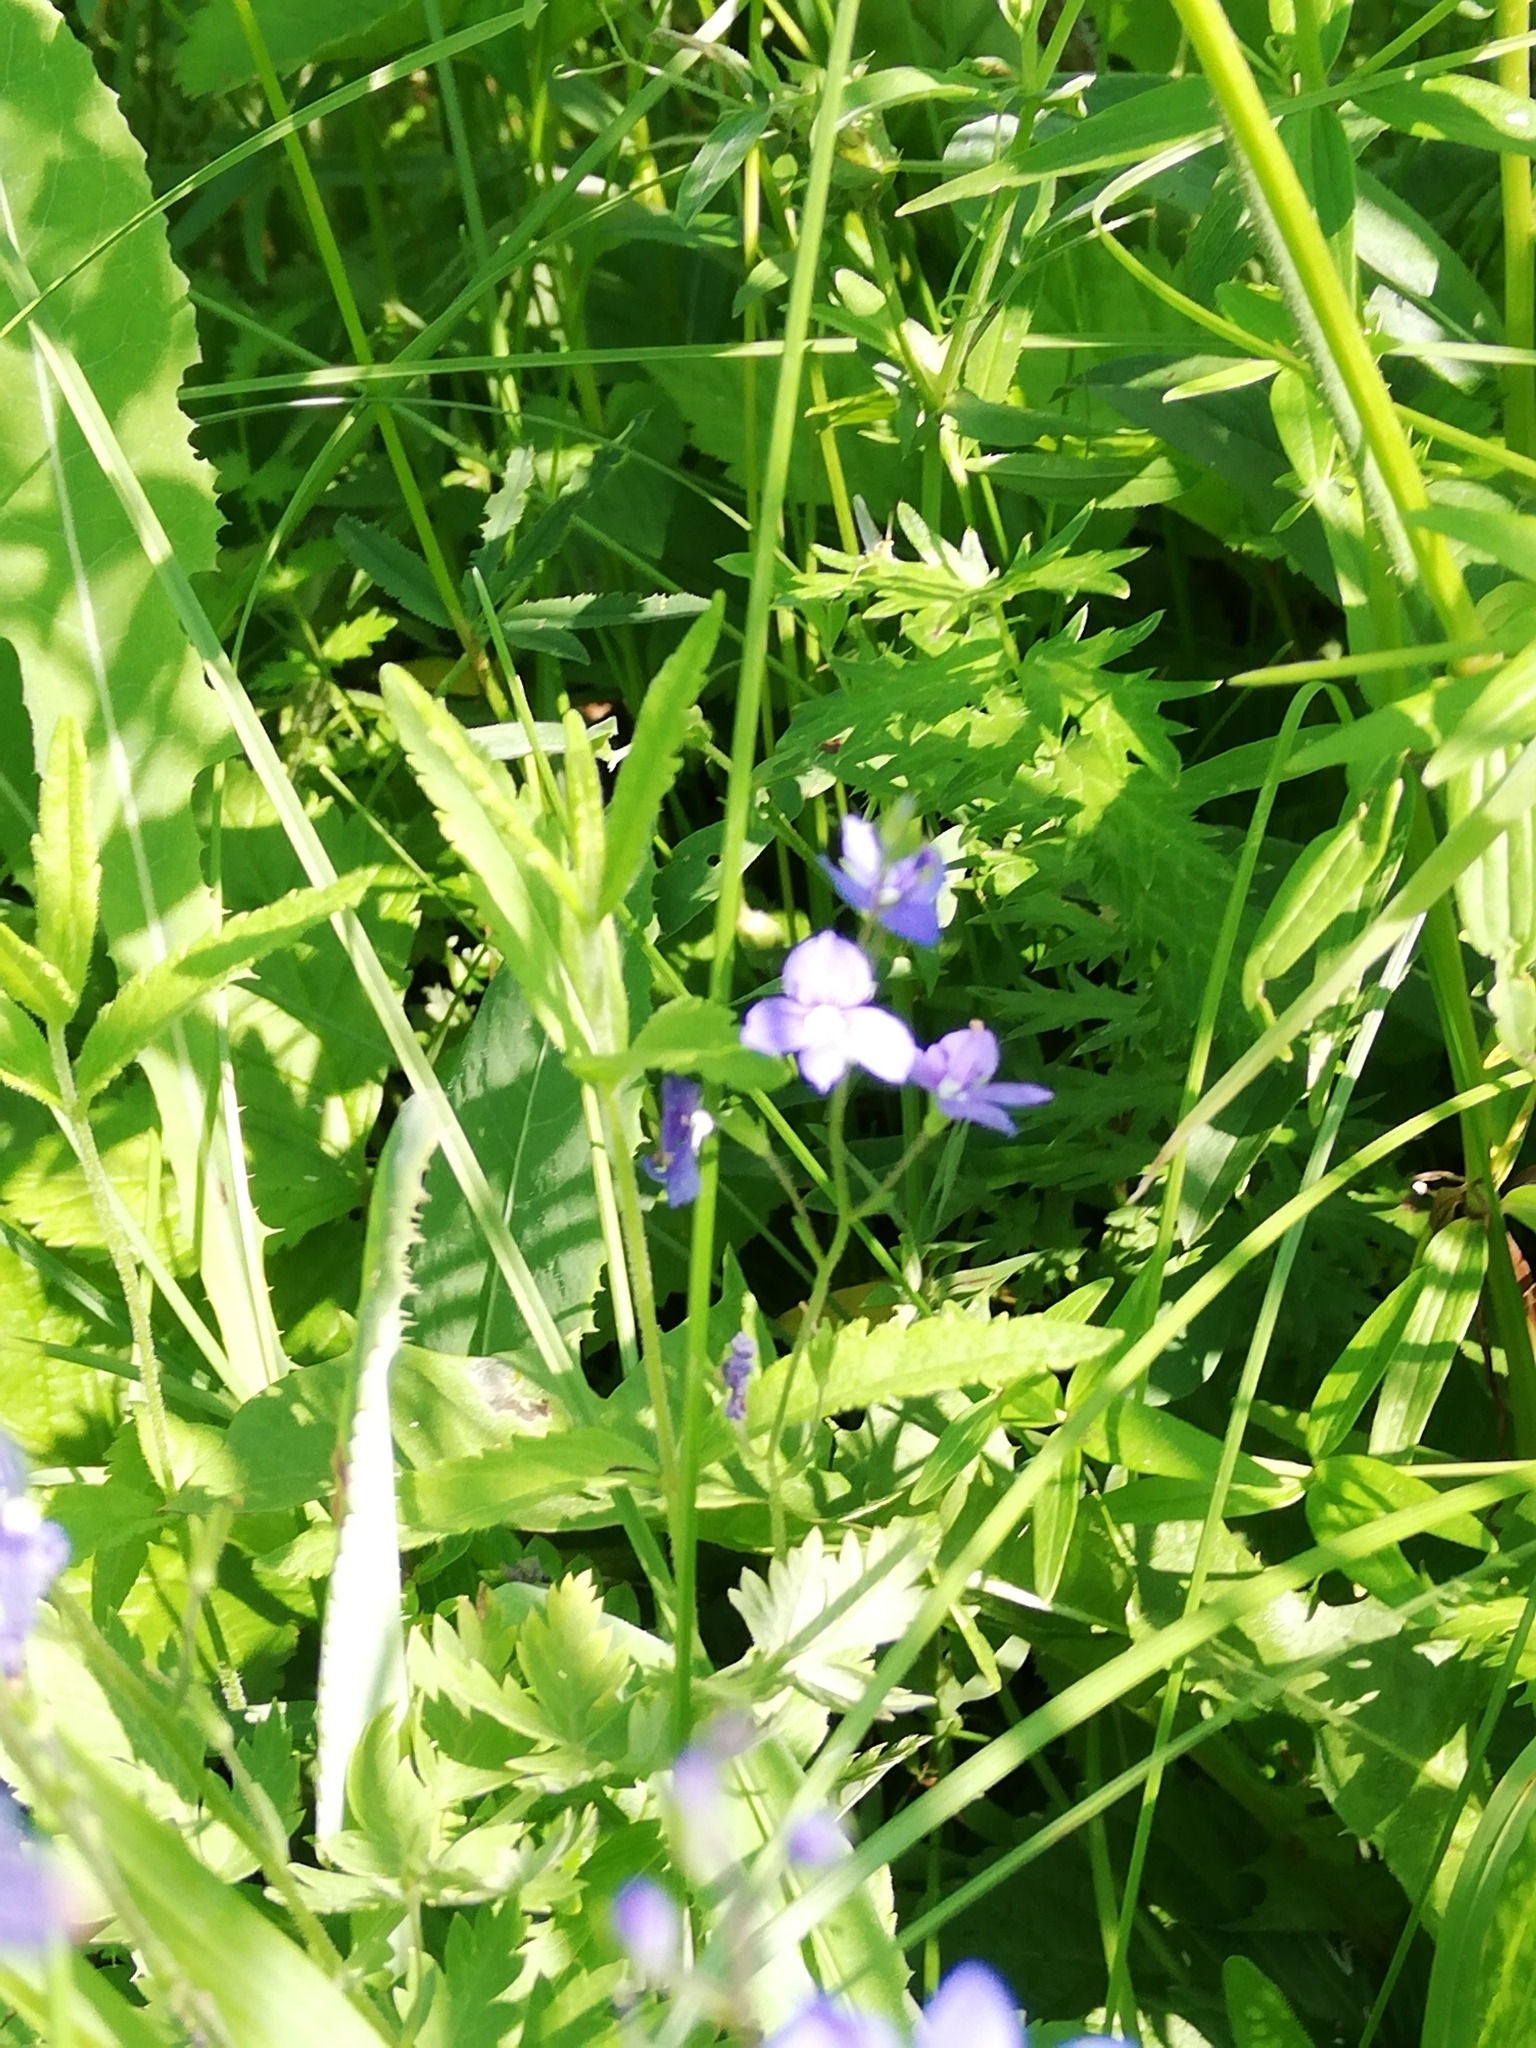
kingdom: Plantae
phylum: Tracheophyta
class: Magnoliopsida
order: Lamiales
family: Plantaginaceae
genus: Veronica
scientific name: Veronica chamaedrys
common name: Germander speedwell
